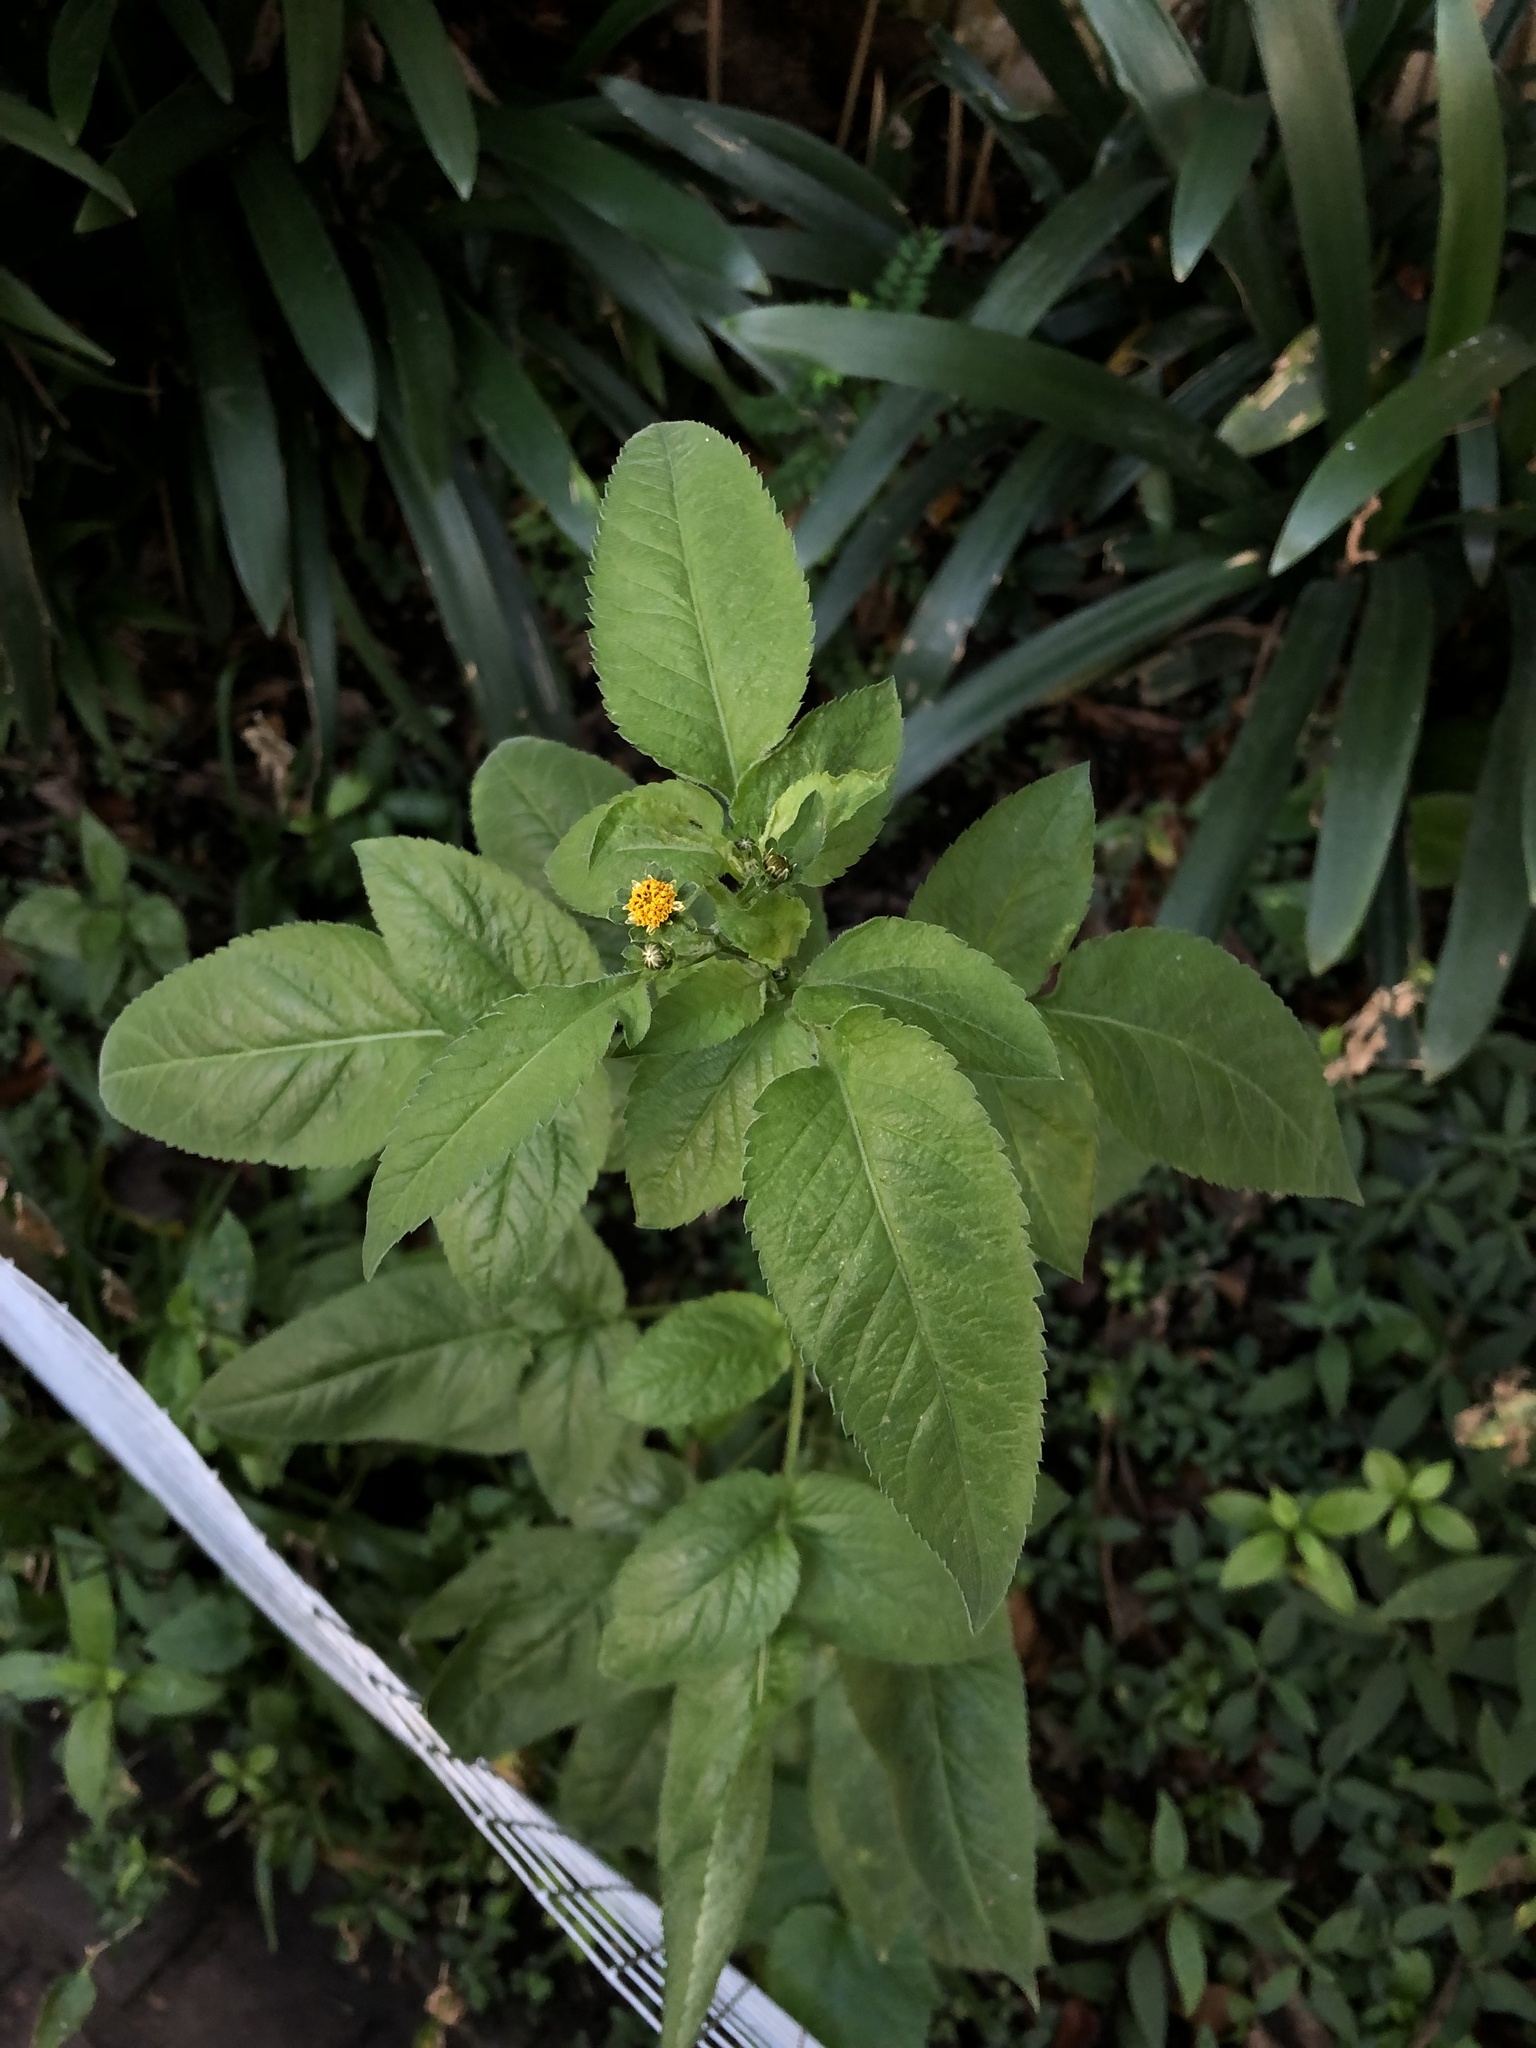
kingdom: Plantae
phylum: Tracheophyta
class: Magnoliopsida
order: Asterales
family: Asteraceae
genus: Bidens
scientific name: Bidens pilosa
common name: Black-jack
